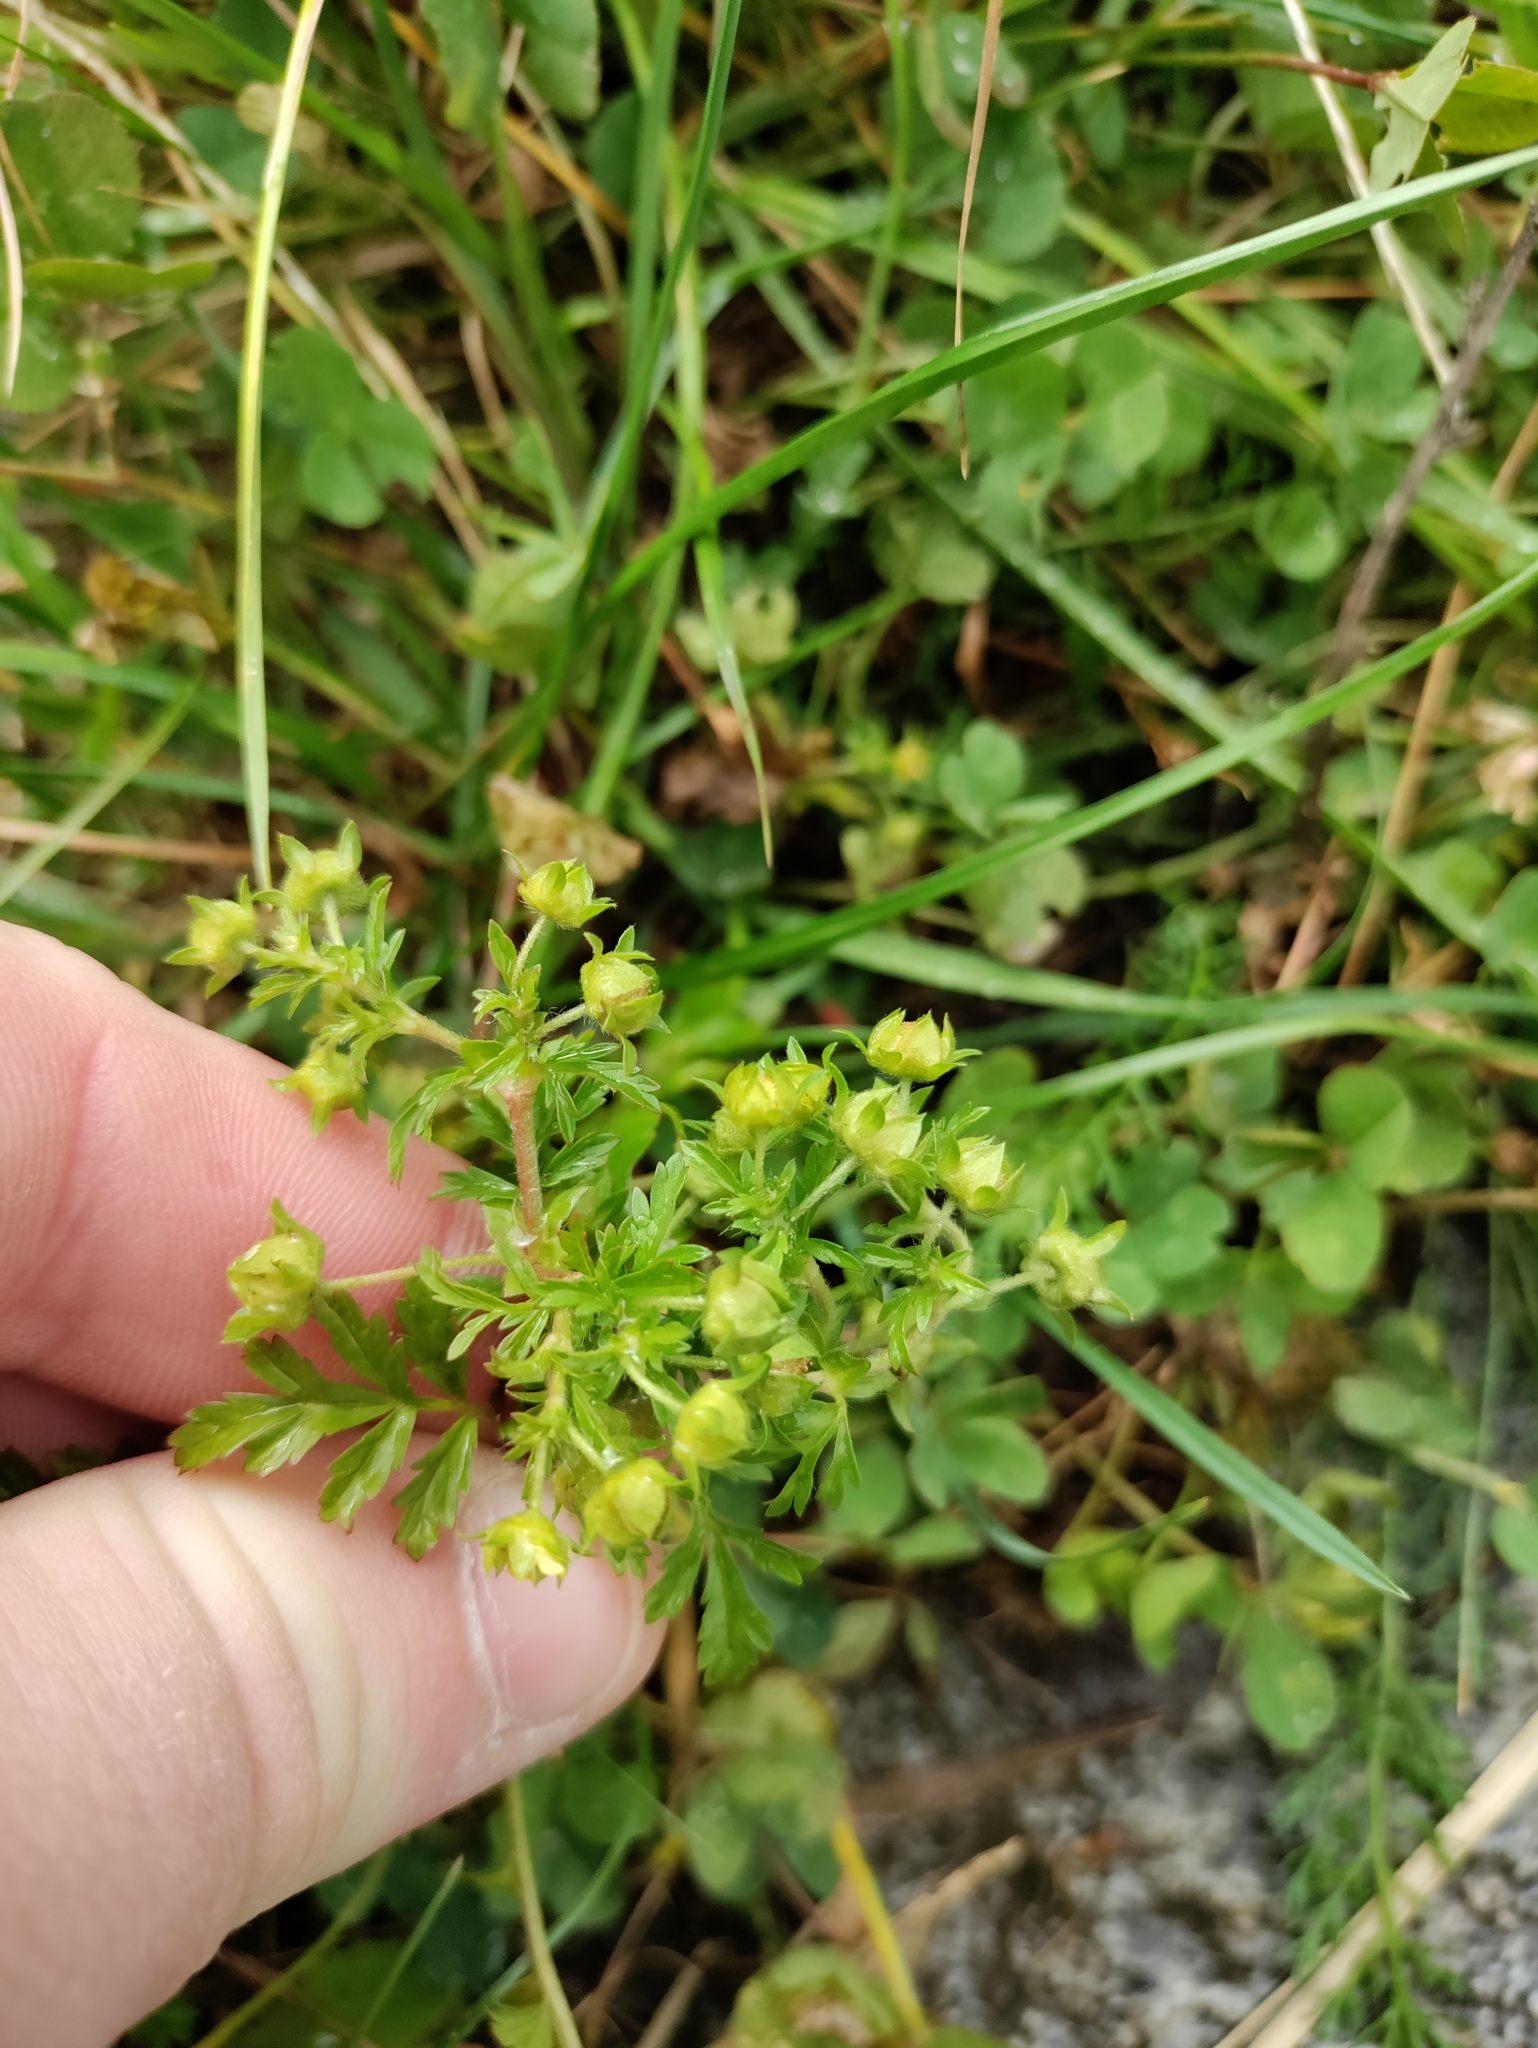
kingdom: Plantae
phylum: Tracheophyta
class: Magnoliopsida
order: Rosales
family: Rosaceae
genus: Potentilla
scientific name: Potentilla supina
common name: Prostrate cinquefoil
